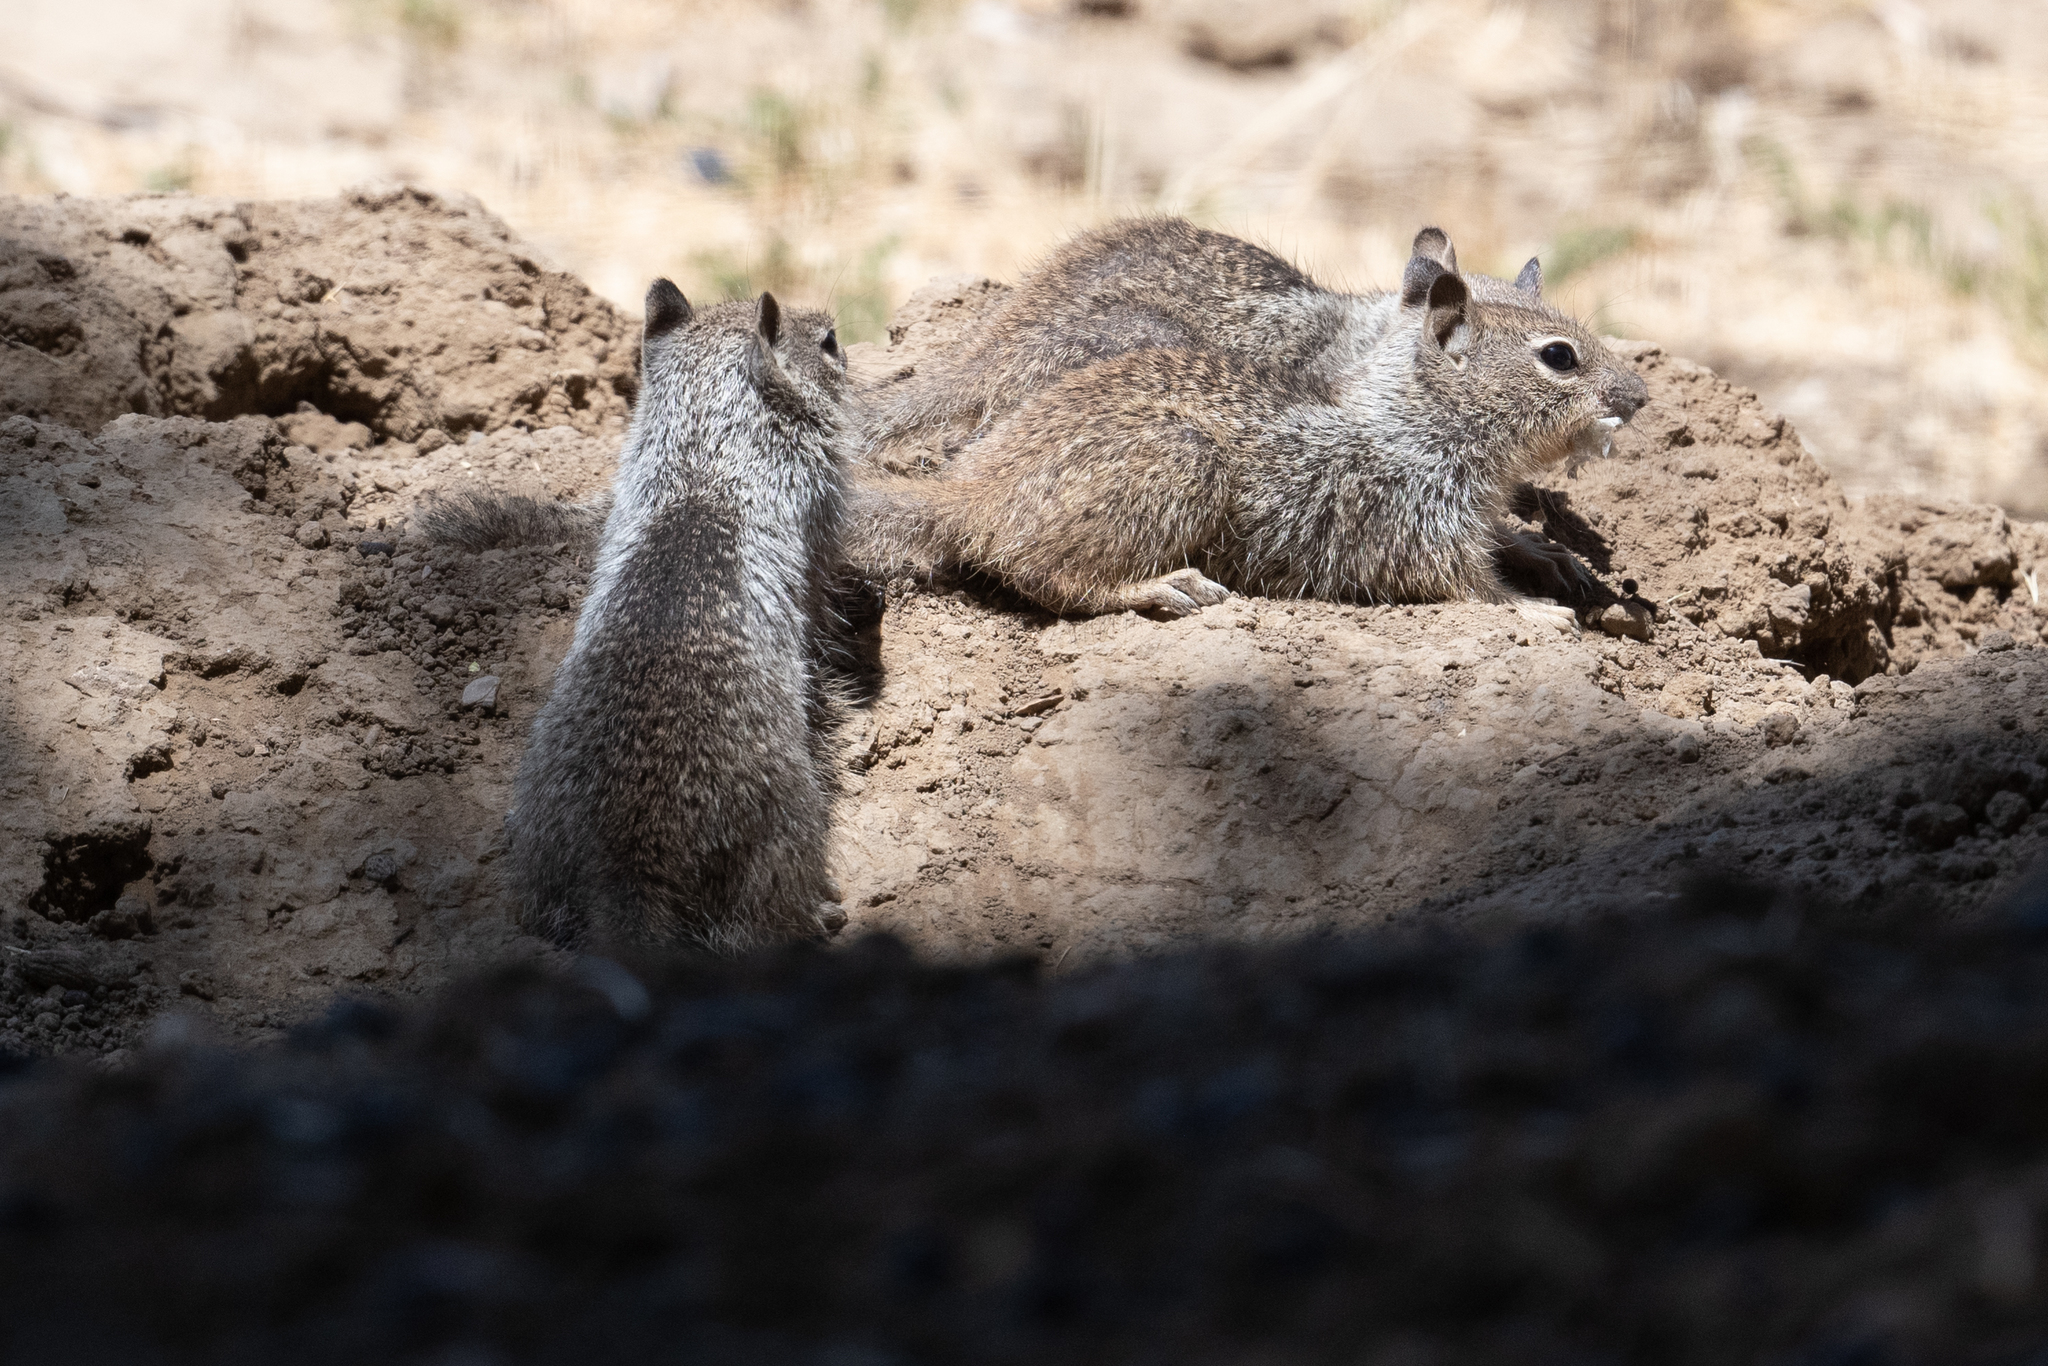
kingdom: Animalia
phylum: Chordata
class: Mammalia
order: Rodentia
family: Sciuridae
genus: Otospermophilus
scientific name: Otospermophilus beecheyi
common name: California ground squirrel
